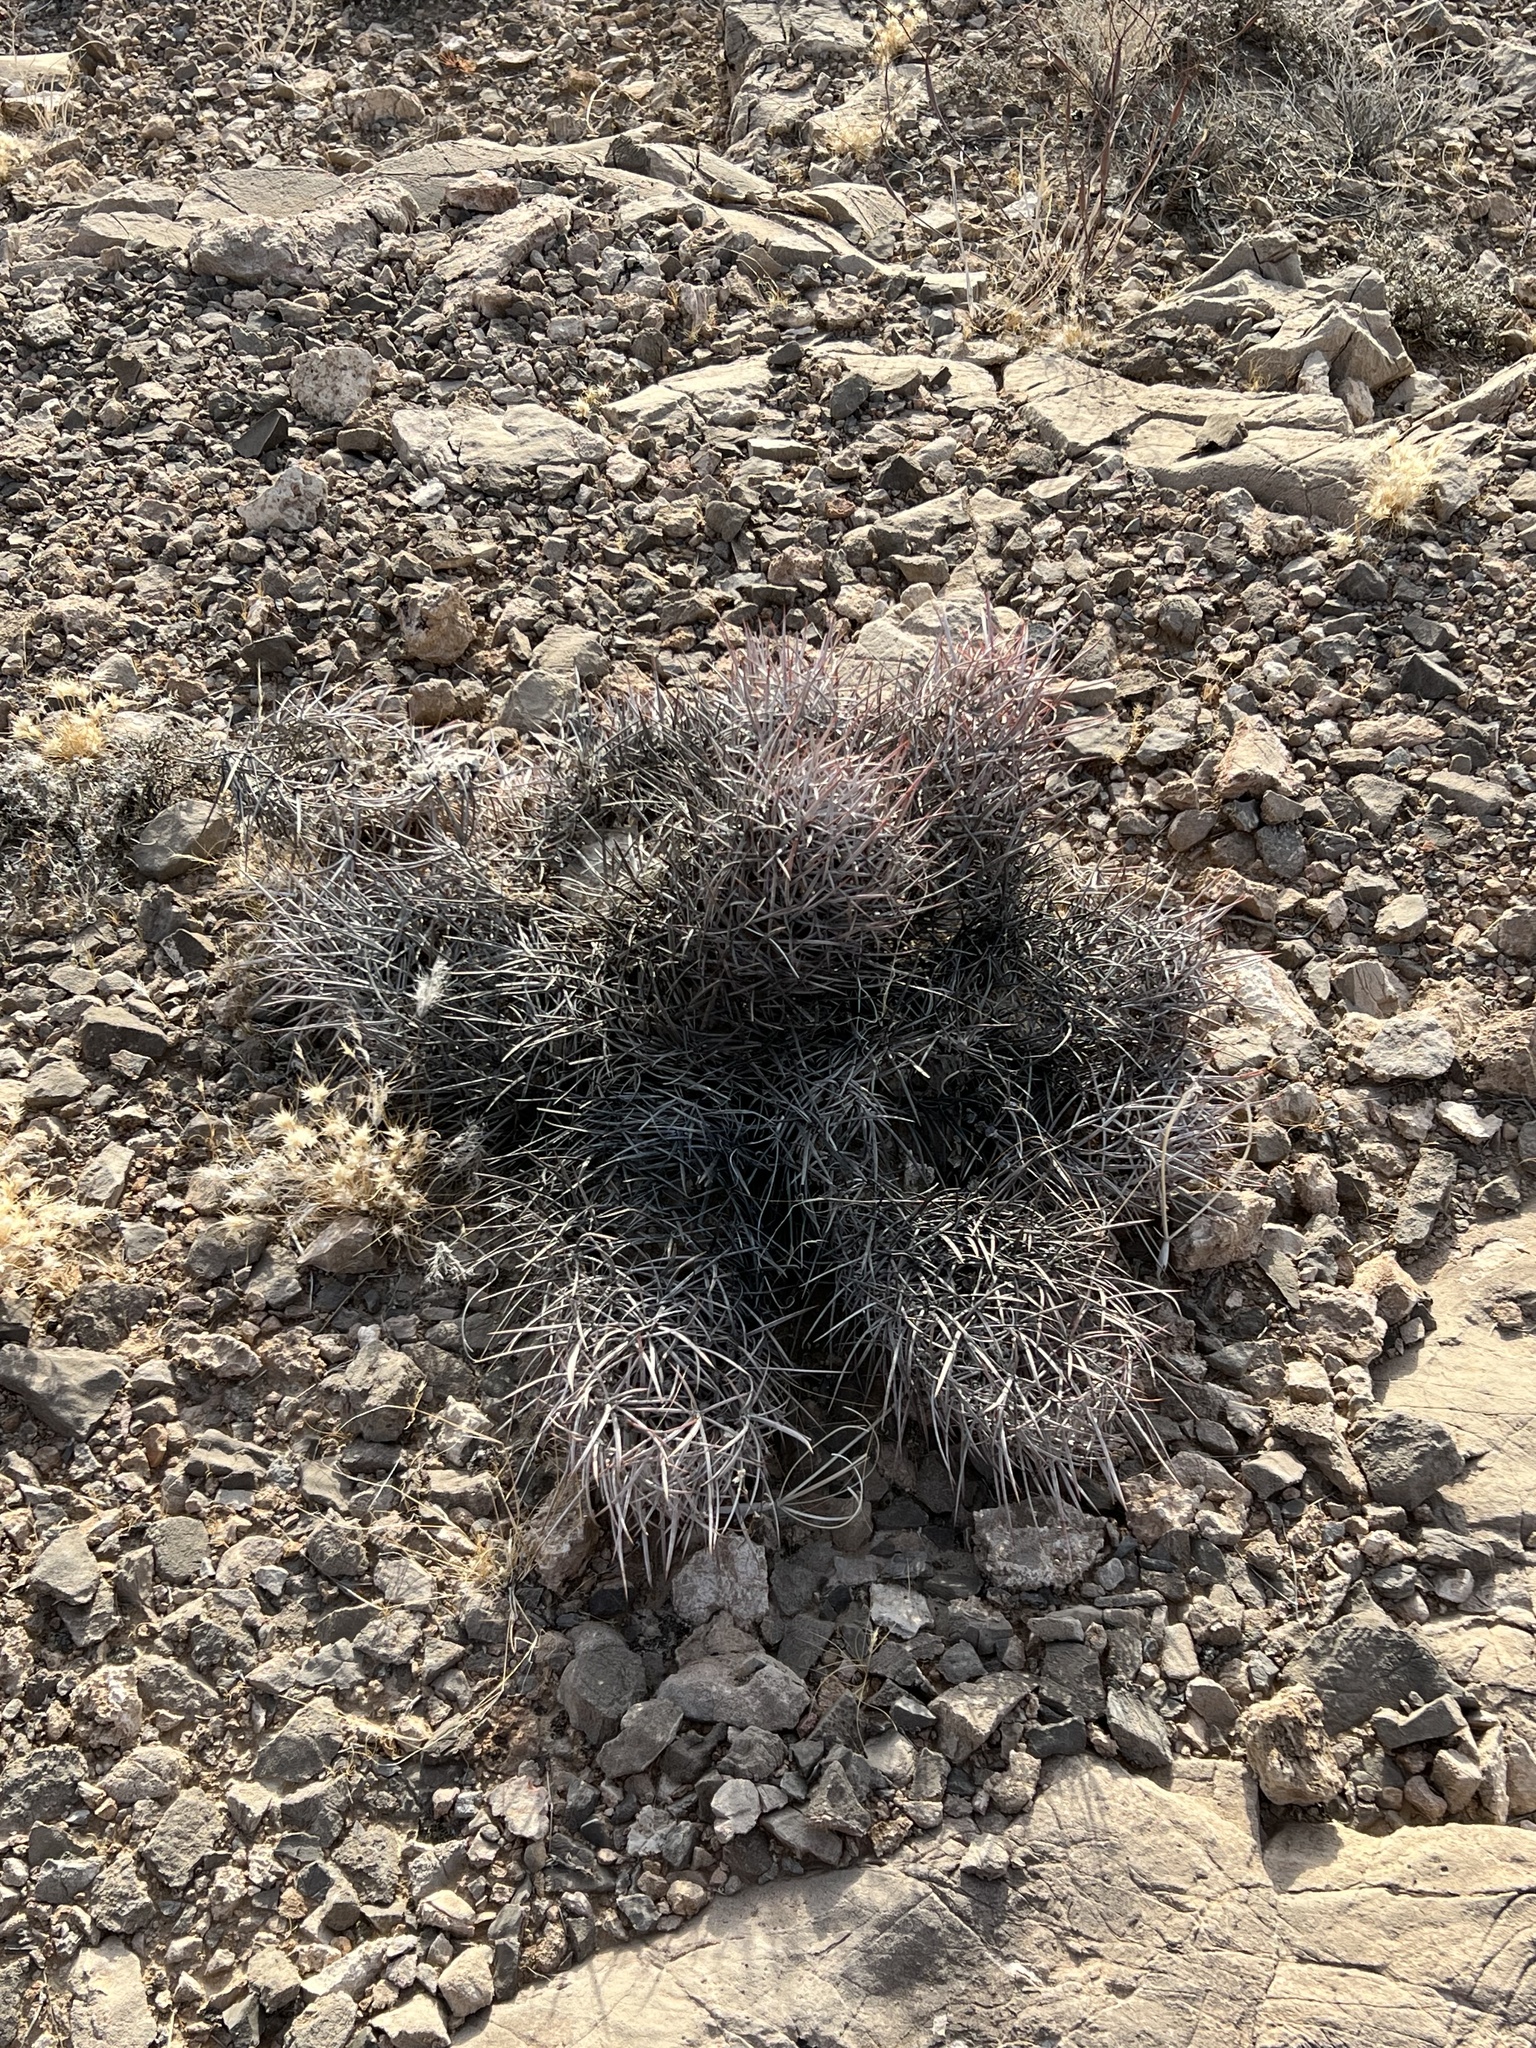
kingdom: Plantae
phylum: Tracheophyta
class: Magnoliopsida
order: Caryophyllales
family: Cactaceae
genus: Echinocactus
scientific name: Echinocactus polycephalus
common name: Cottontop cactus
